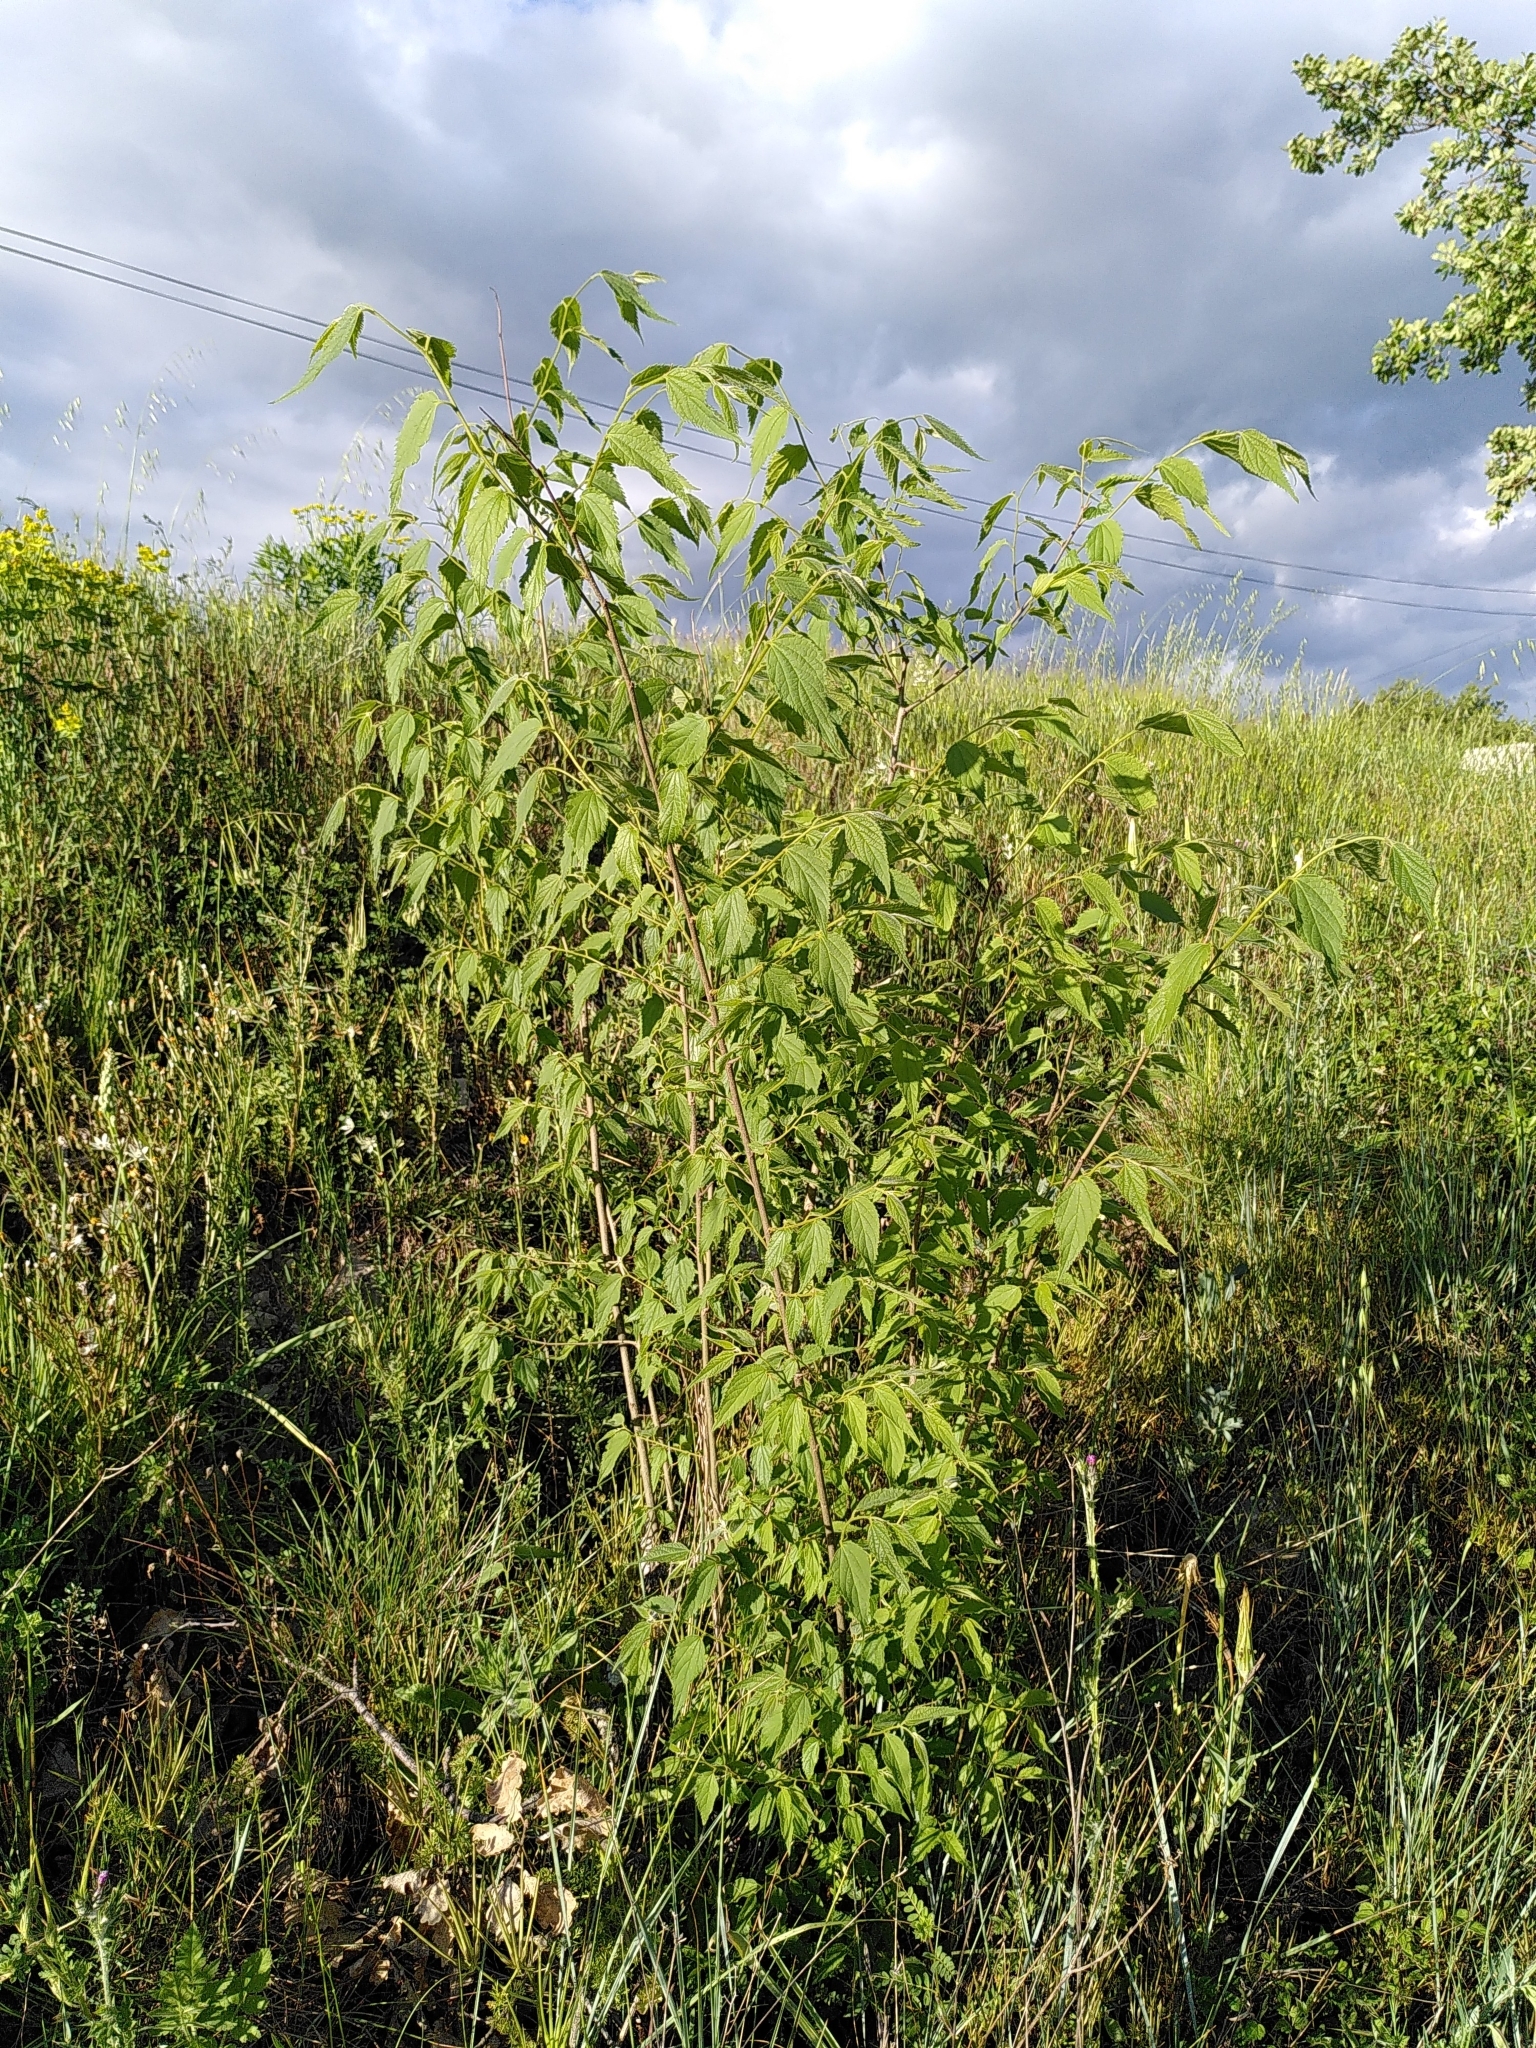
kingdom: Plantae
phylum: Tracheophyta
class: Magnoliopsida
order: Rosales
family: Cannabaceae
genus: Celtis
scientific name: Celtis australis
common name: European hackberry
